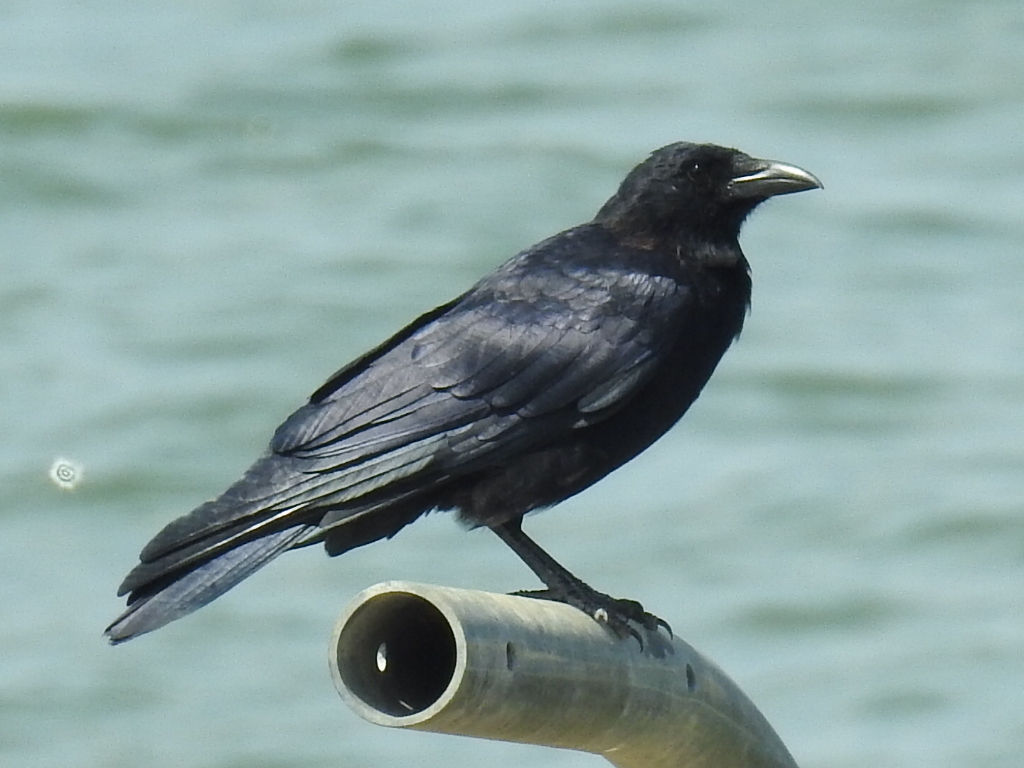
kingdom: Animalia
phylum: Chordata
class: Aves
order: Passeriformes
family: Corvidae
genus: Corvus
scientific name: Corvus brachyrhynchos
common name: American crow
